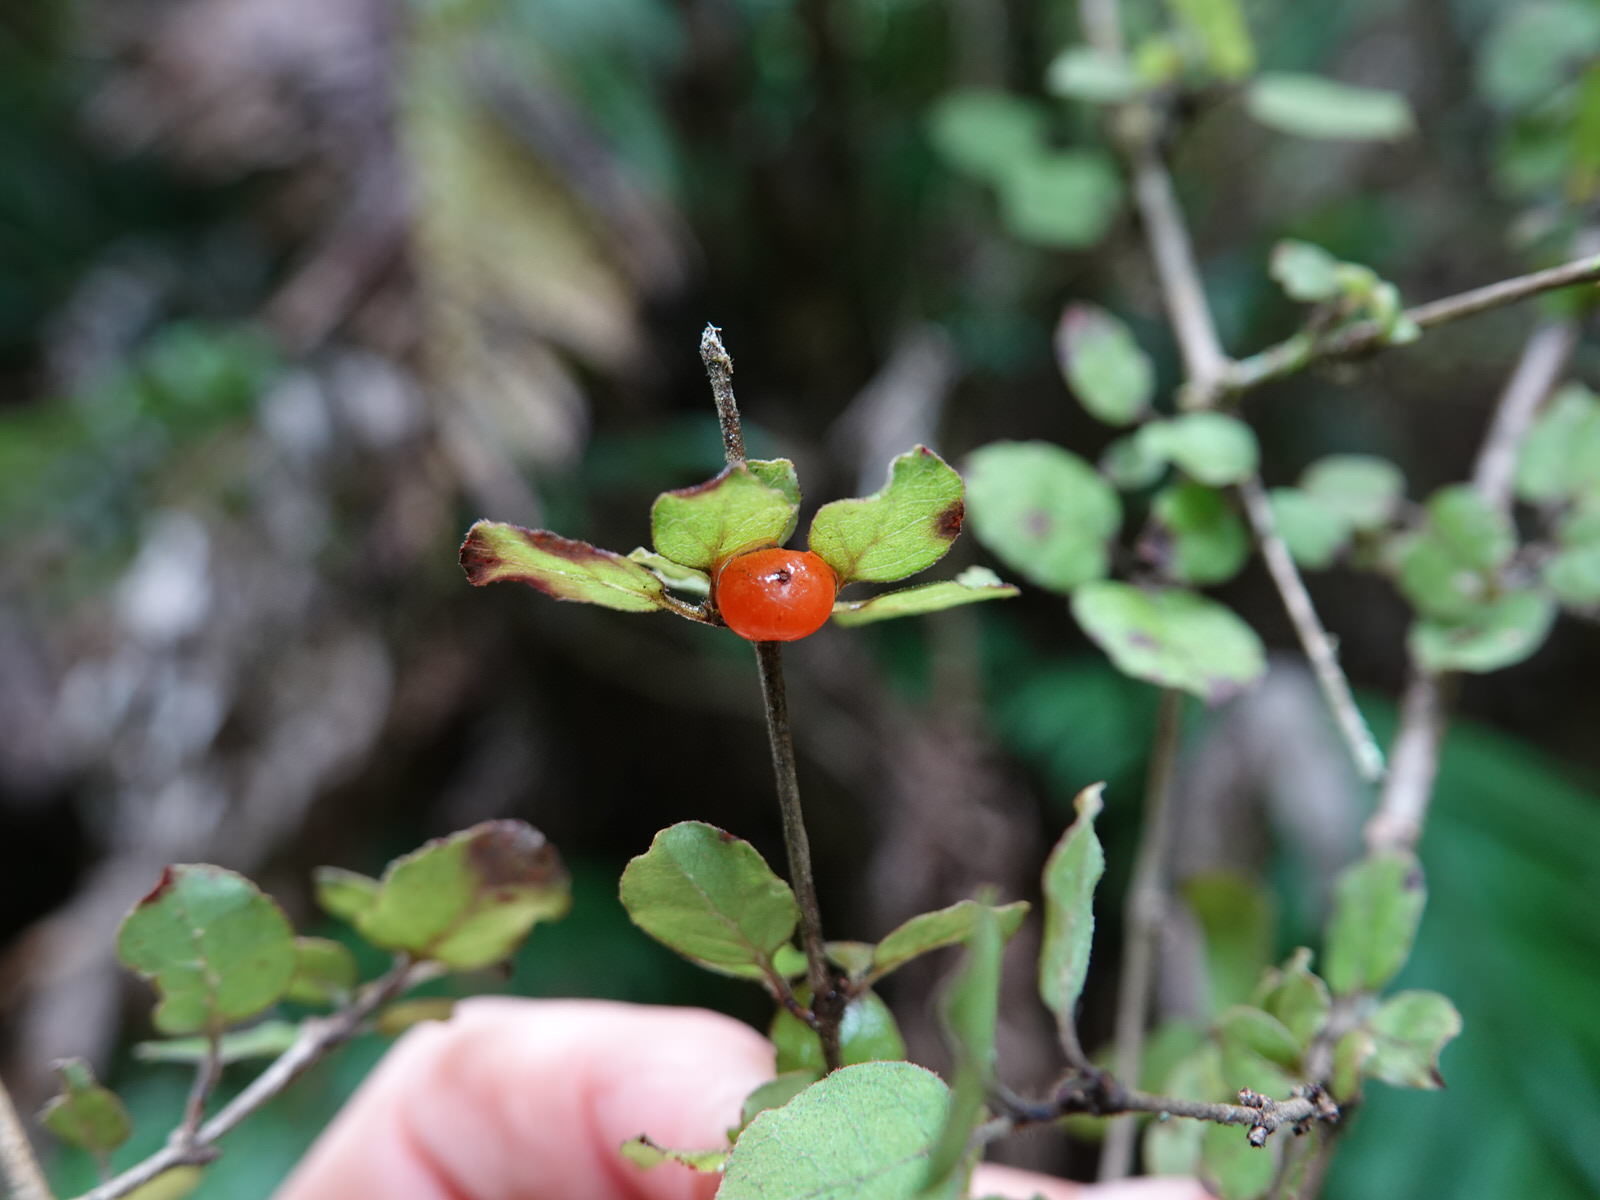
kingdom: Plantae
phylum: Tracheophyta
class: Magnoliopsida
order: Gentianales
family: Rubiaceae
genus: Coprosma
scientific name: Coprosma rotundifolia
